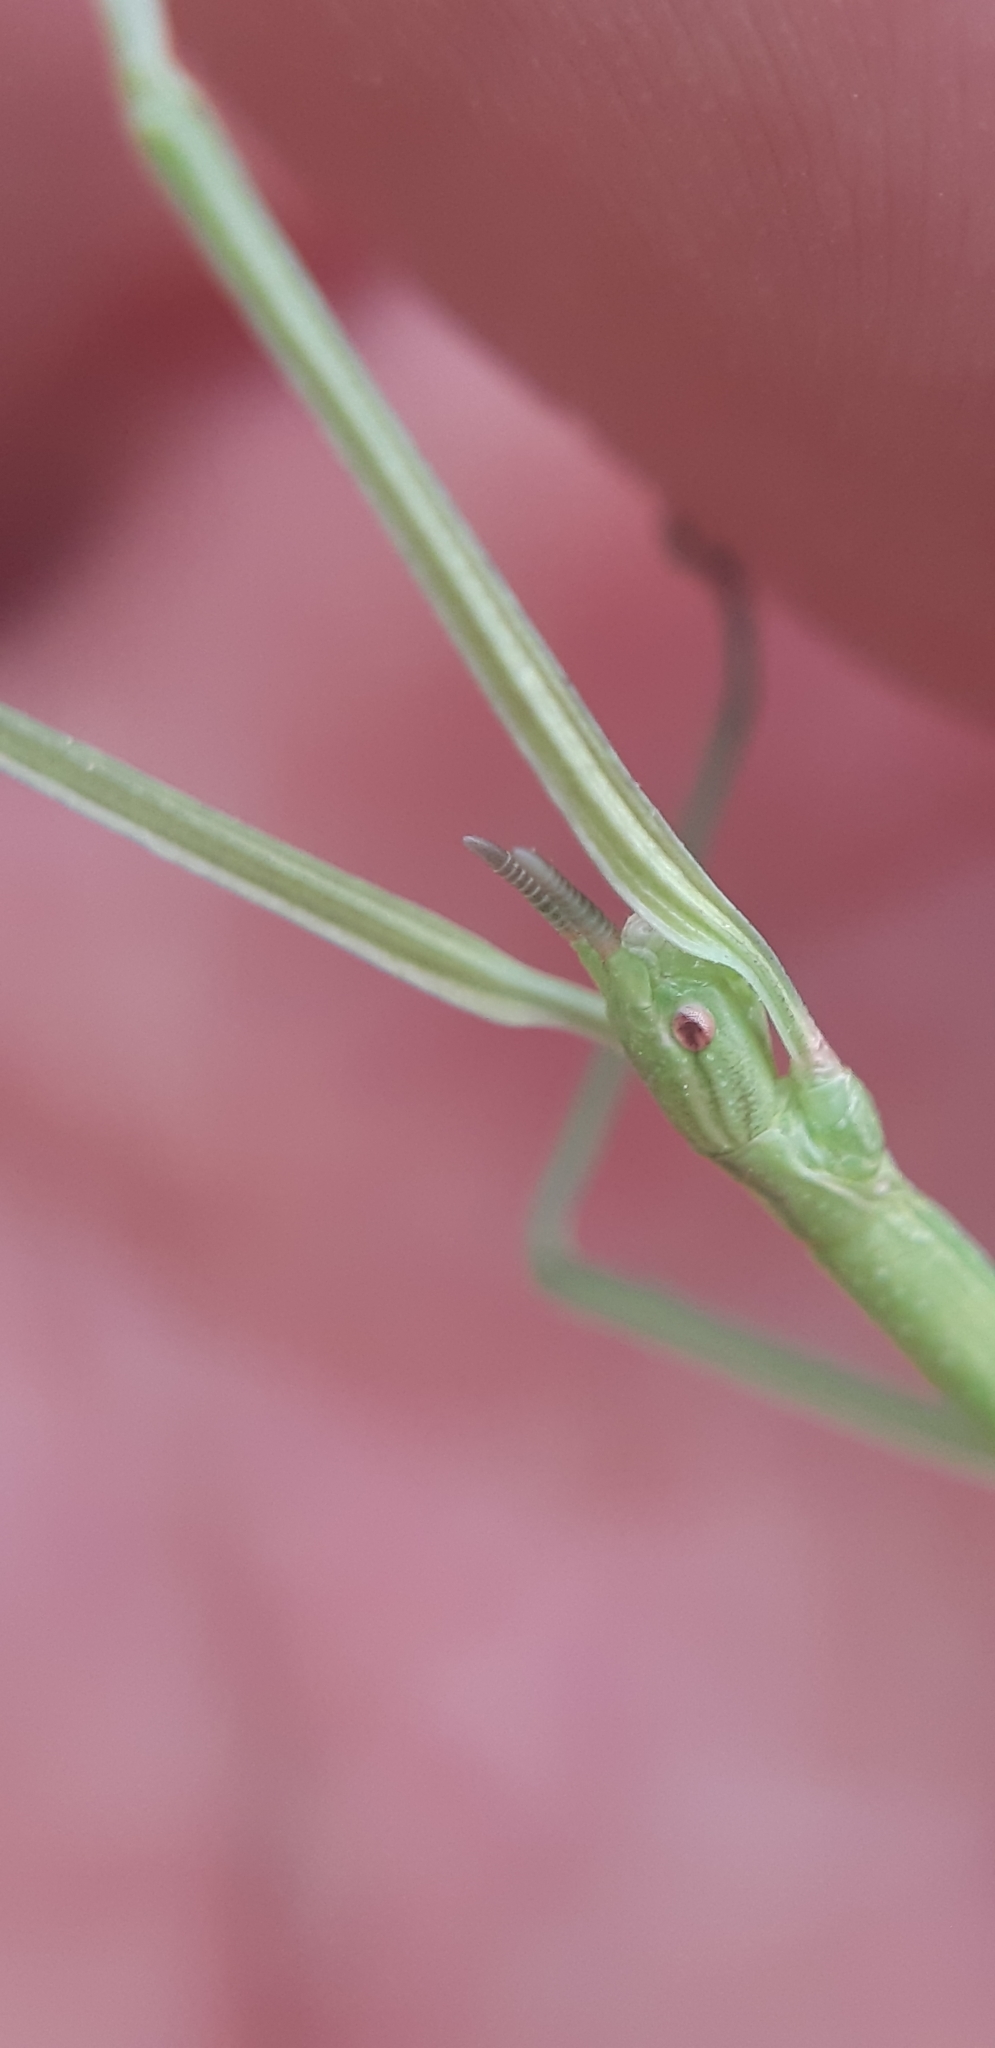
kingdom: Animalia
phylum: Arthropoda
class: Insecta
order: Phasmida
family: Bacillidae
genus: Clonopsis
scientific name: Clonopsis gallica
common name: French stick insect
